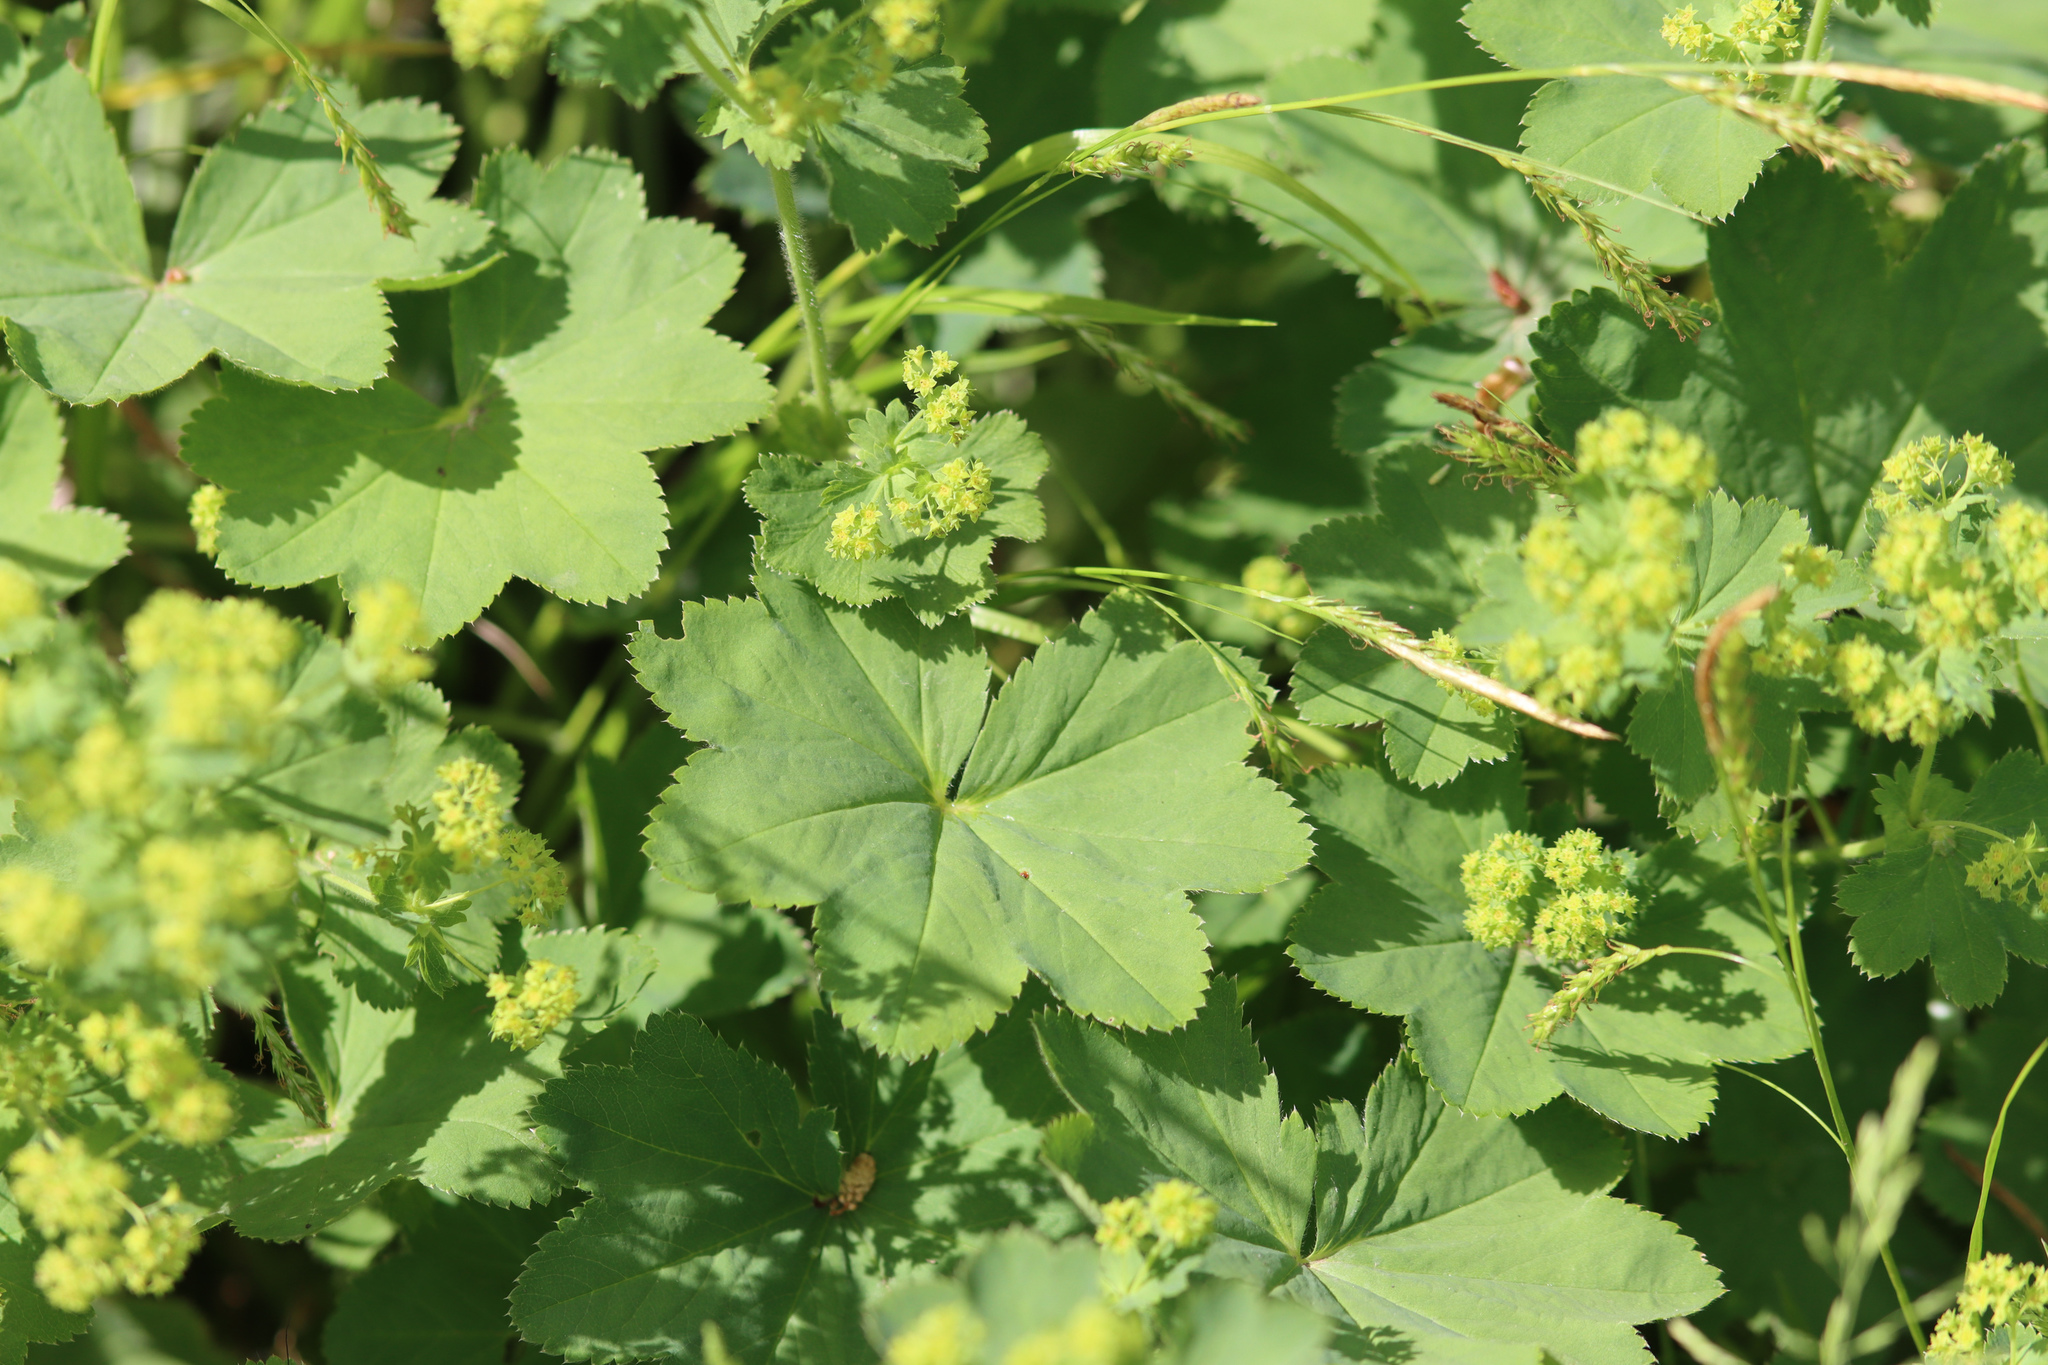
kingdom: Plantae
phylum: Tracheophyta
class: Magnoliopsida
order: Rosales
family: Rosaceae
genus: Alchemilla
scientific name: Alchemilla vulgaris
